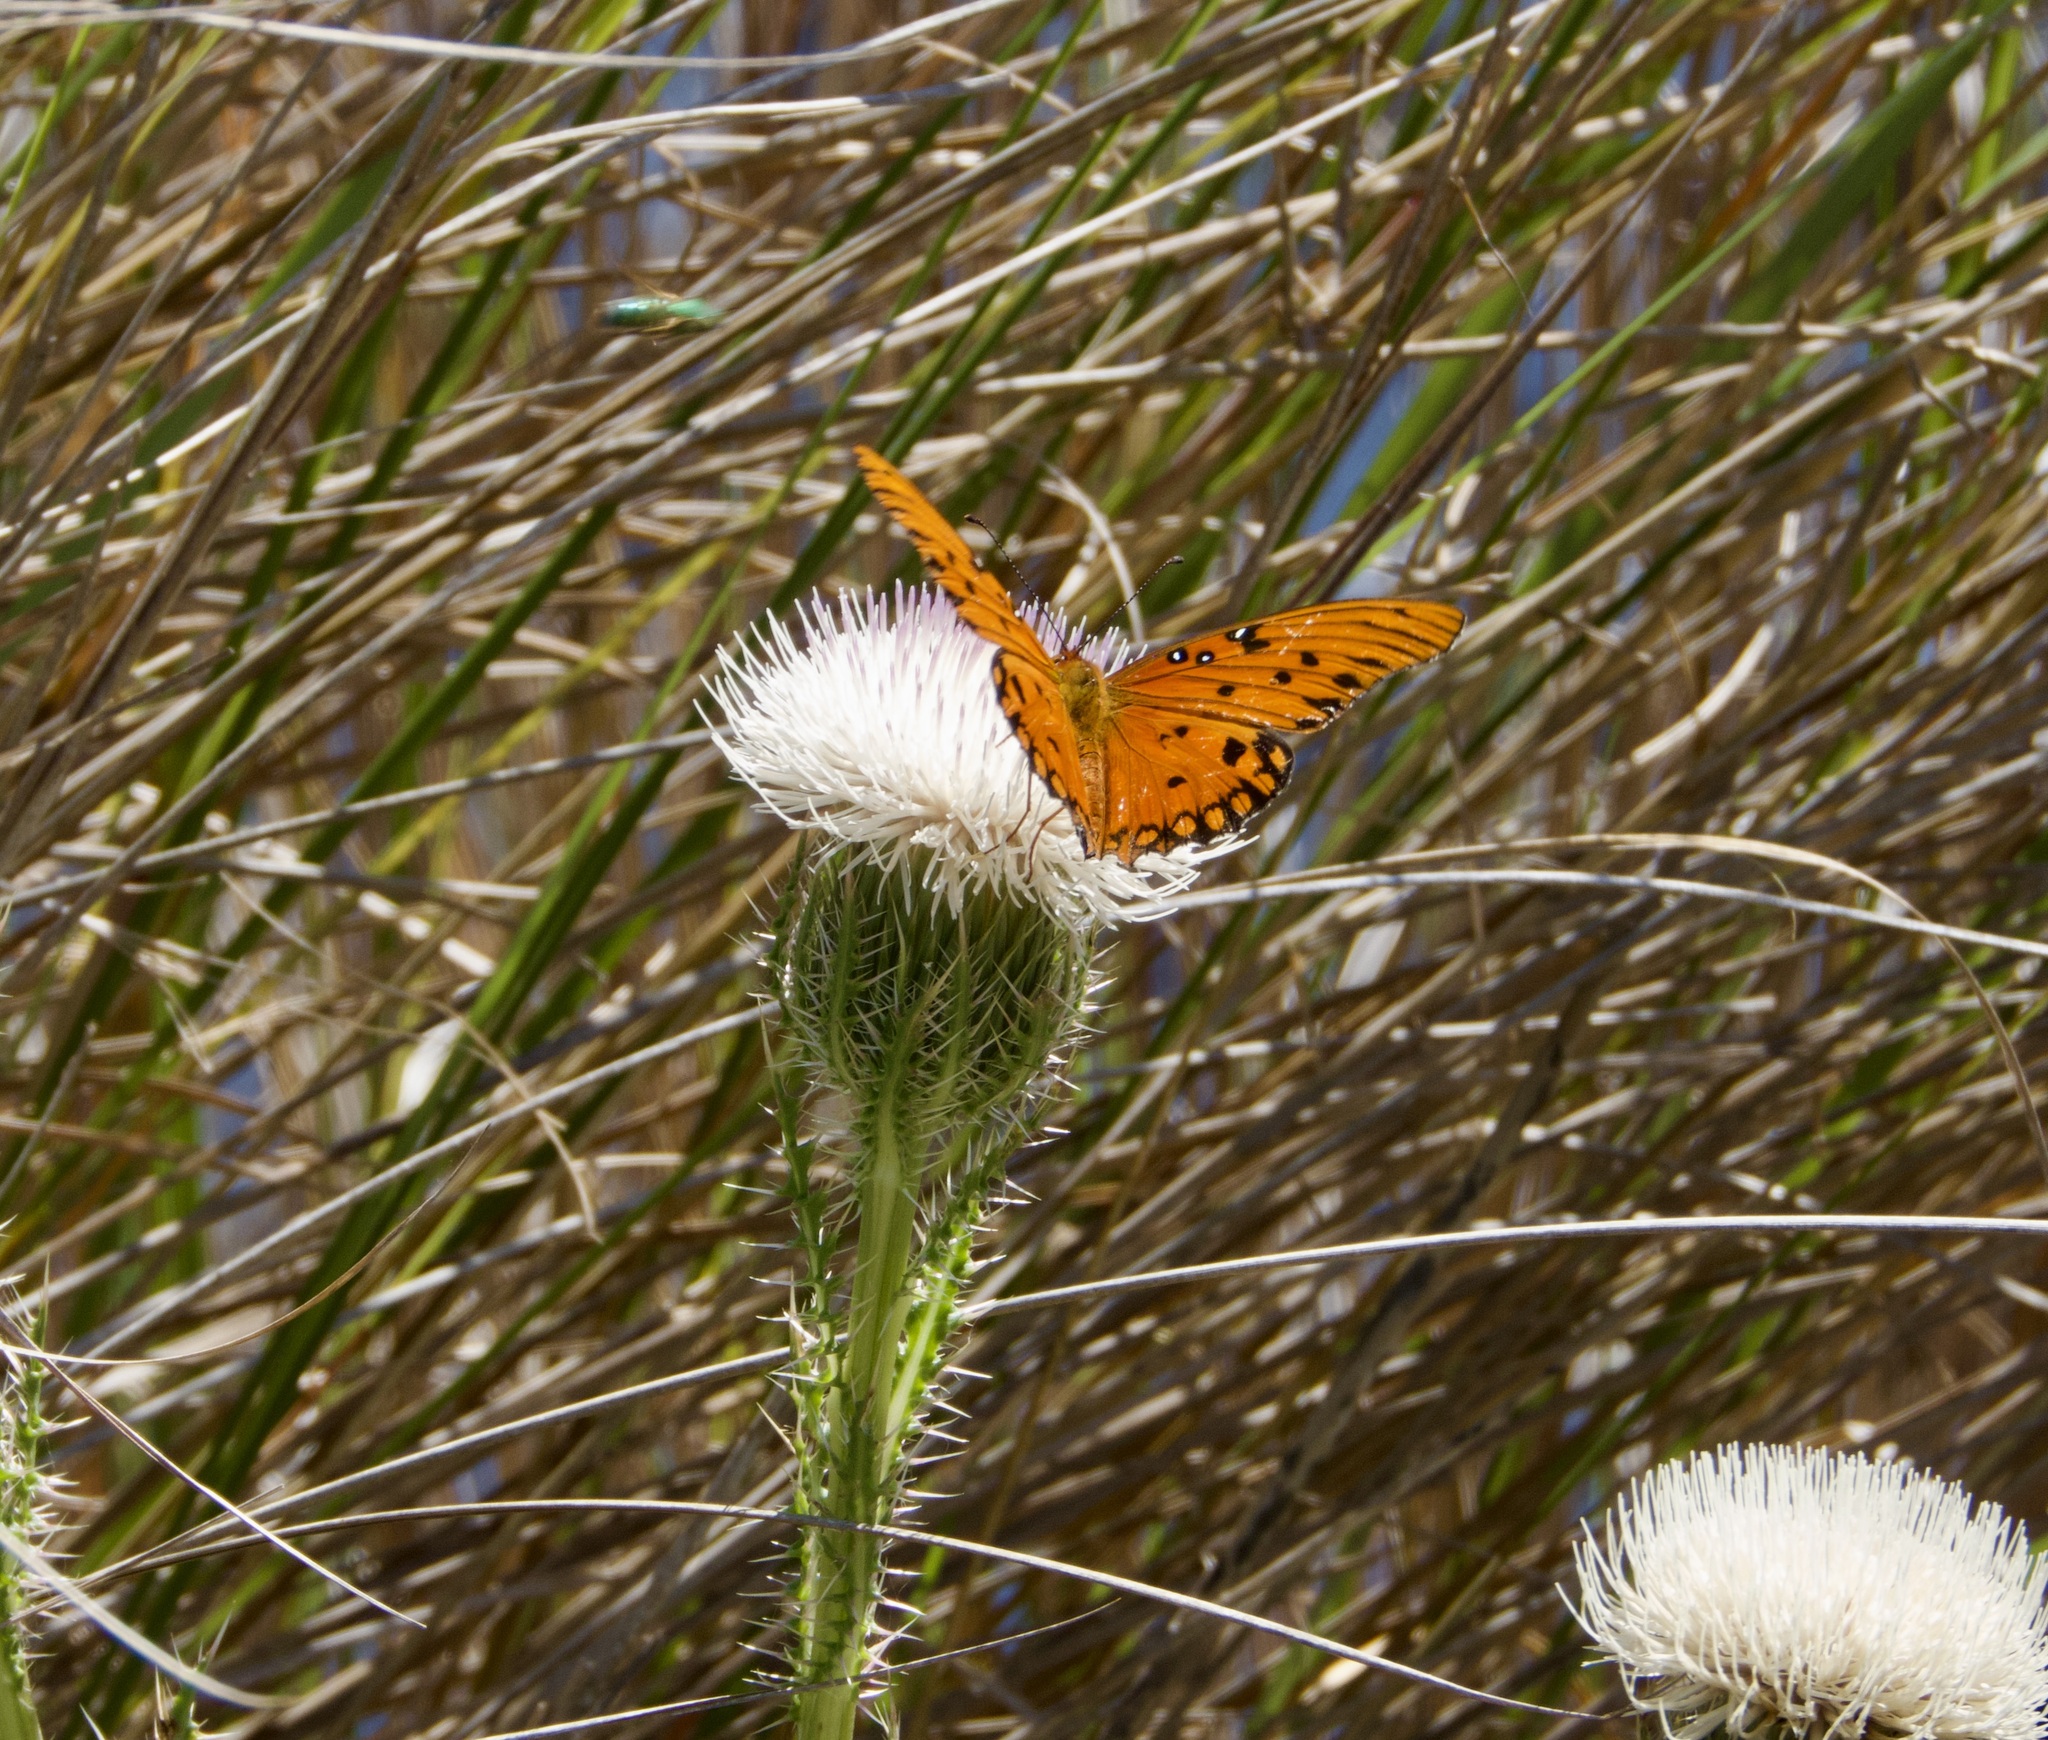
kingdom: Animalia
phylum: Arthropoda
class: Insecta
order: Lepidoptera
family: Nymphalidae
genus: Dione
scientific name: Dione vanillae
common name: Gulf fritillary
